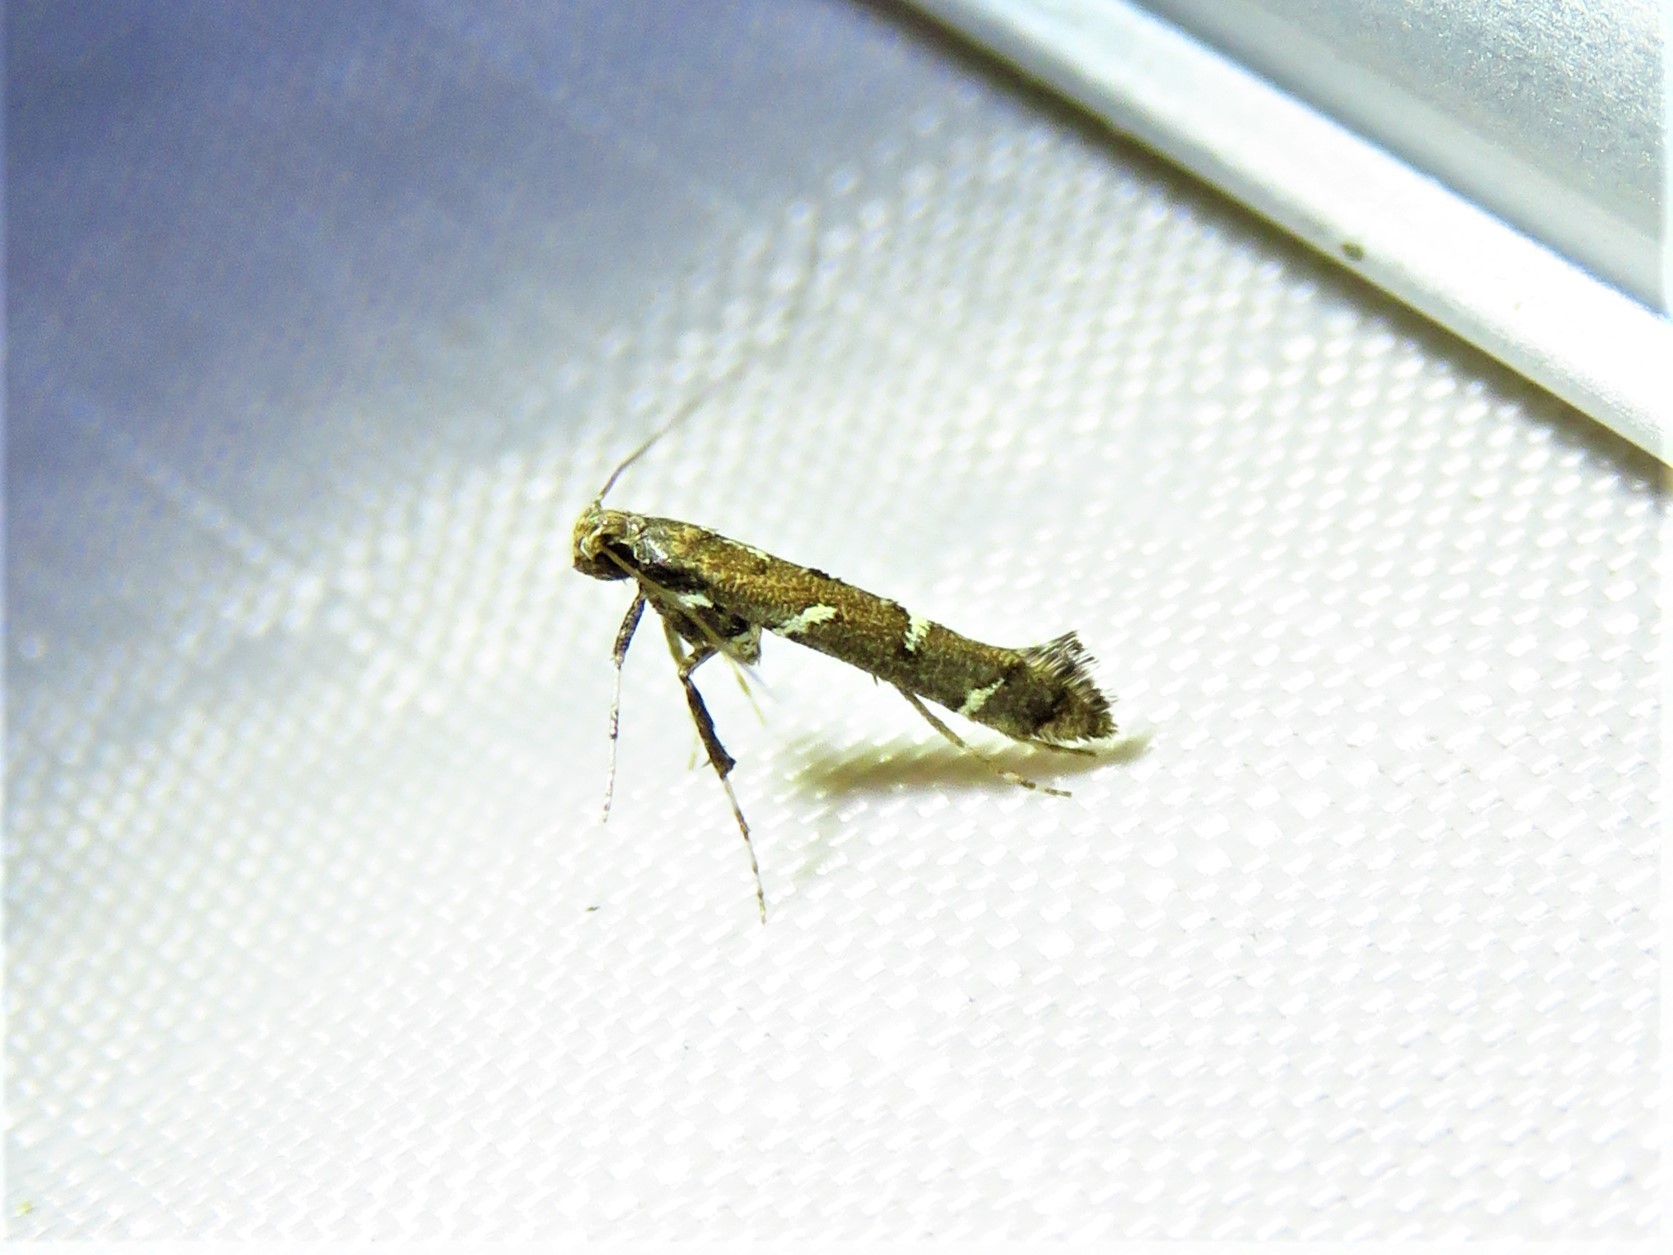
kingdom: Animalia
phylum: Arthropoda
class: Insecta
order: Lepidoptera
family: Gracillariidae
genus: Caloptilia
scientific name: Caloptilia triadicae
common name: Tallow leaf roller
